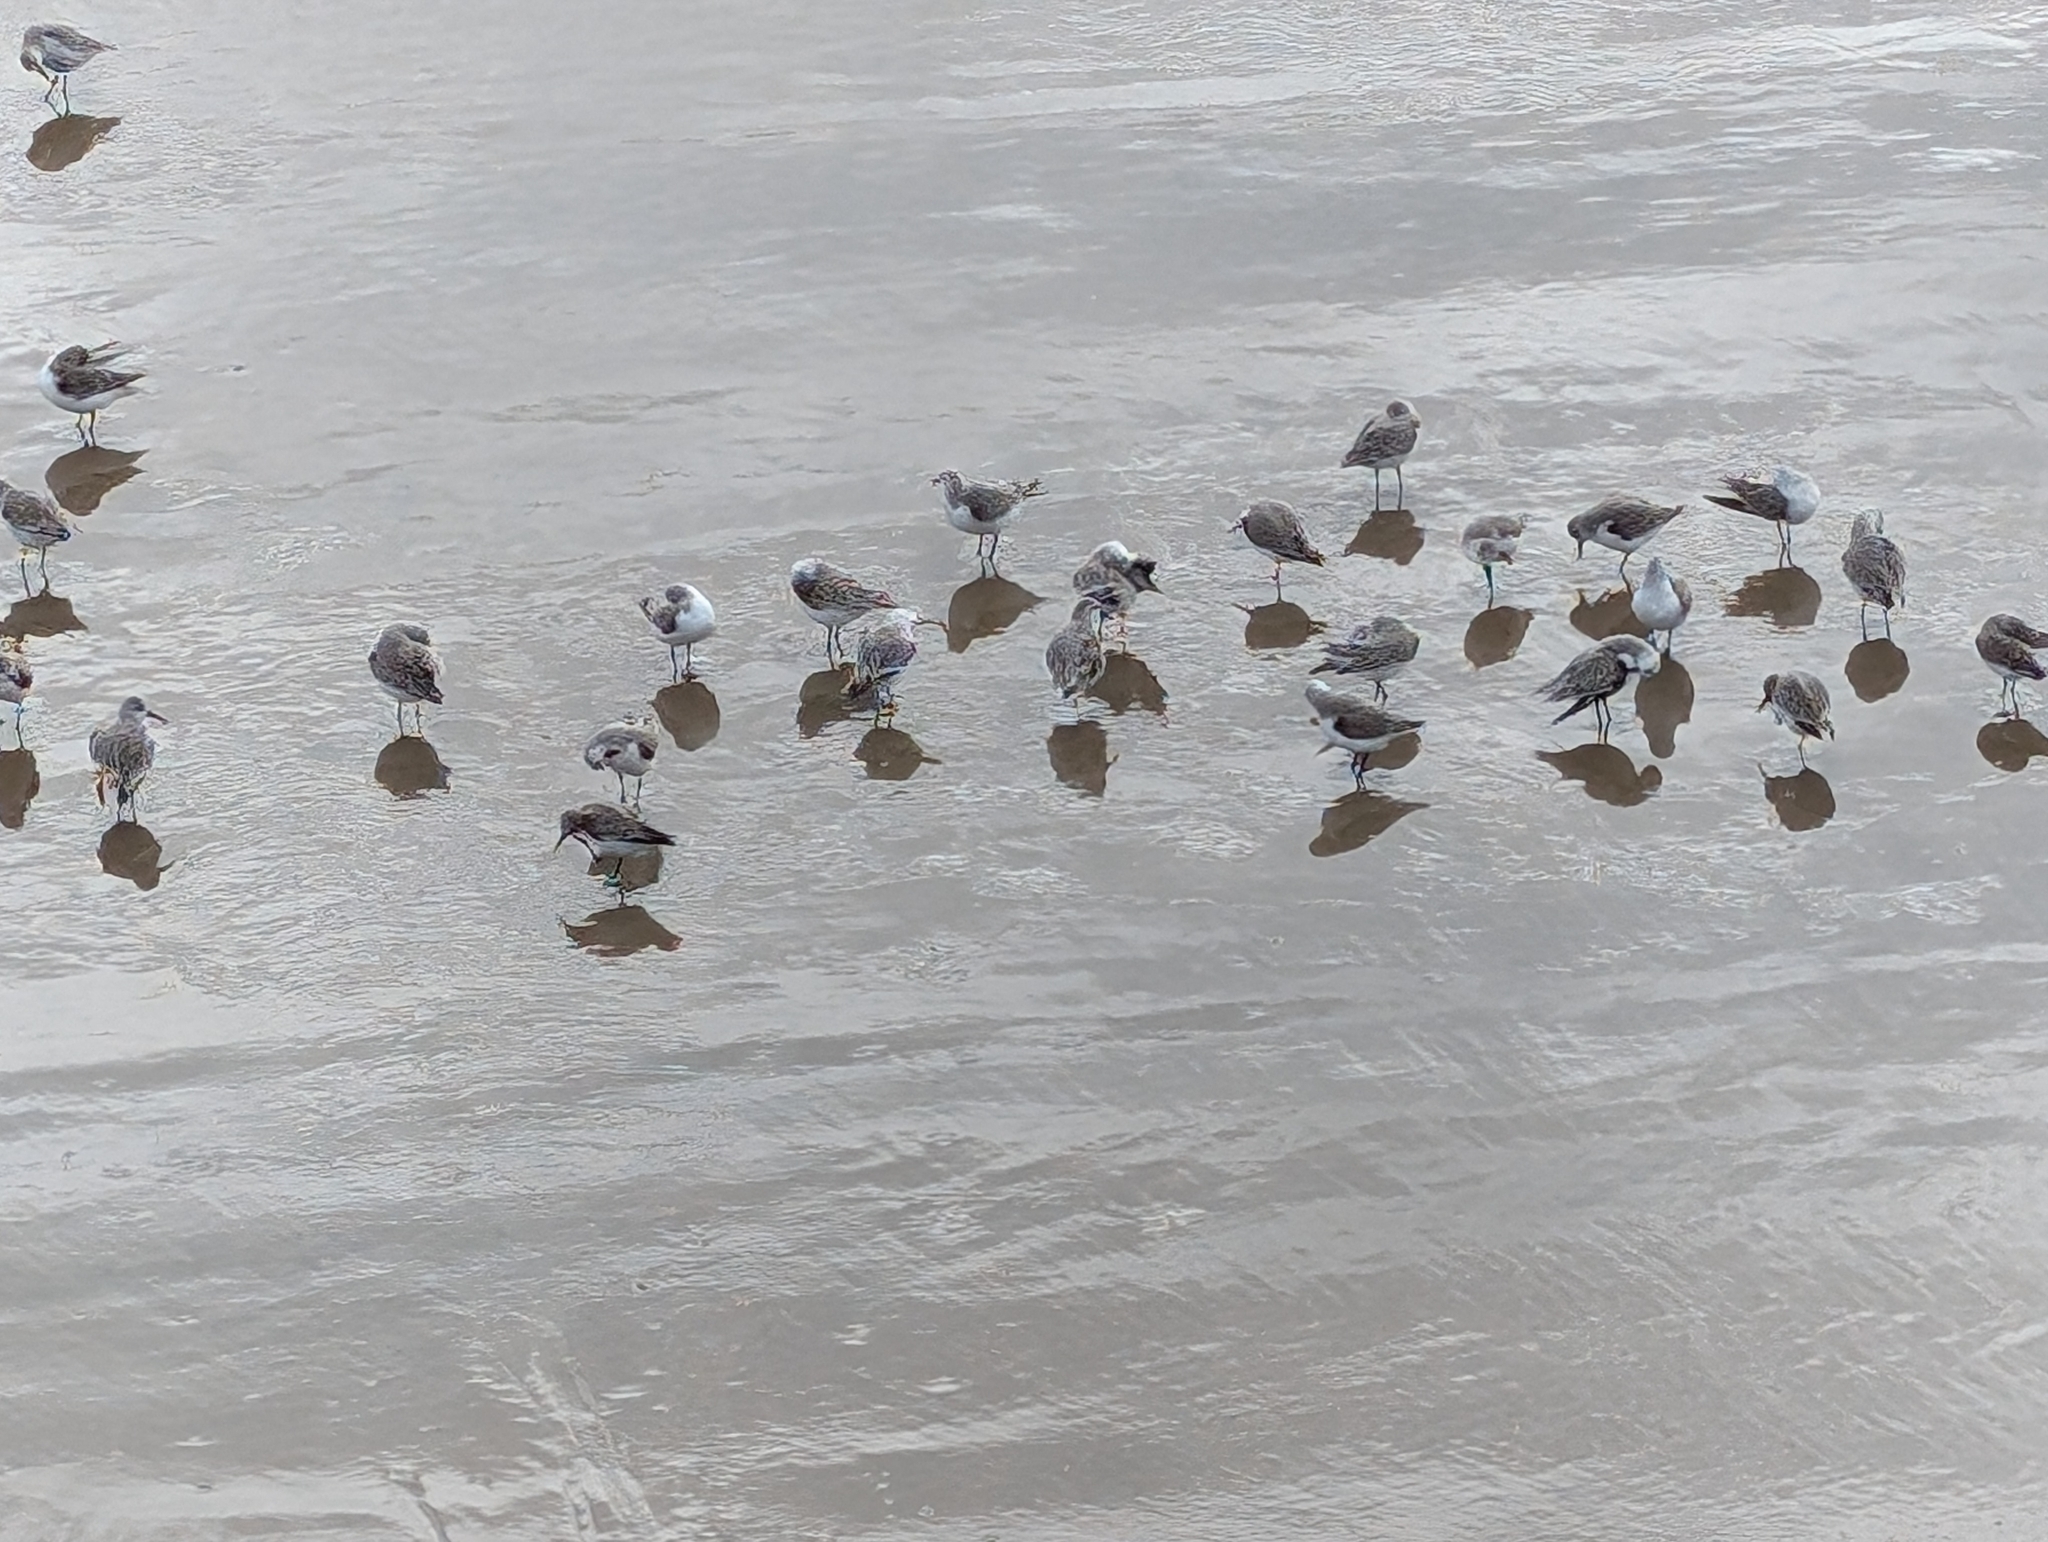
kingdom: Animalia
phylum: Chordata
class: Aves
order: Charadriiformes
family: Scolopacidae
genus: Calidris
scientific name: Calidris alba
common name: Sanderling
